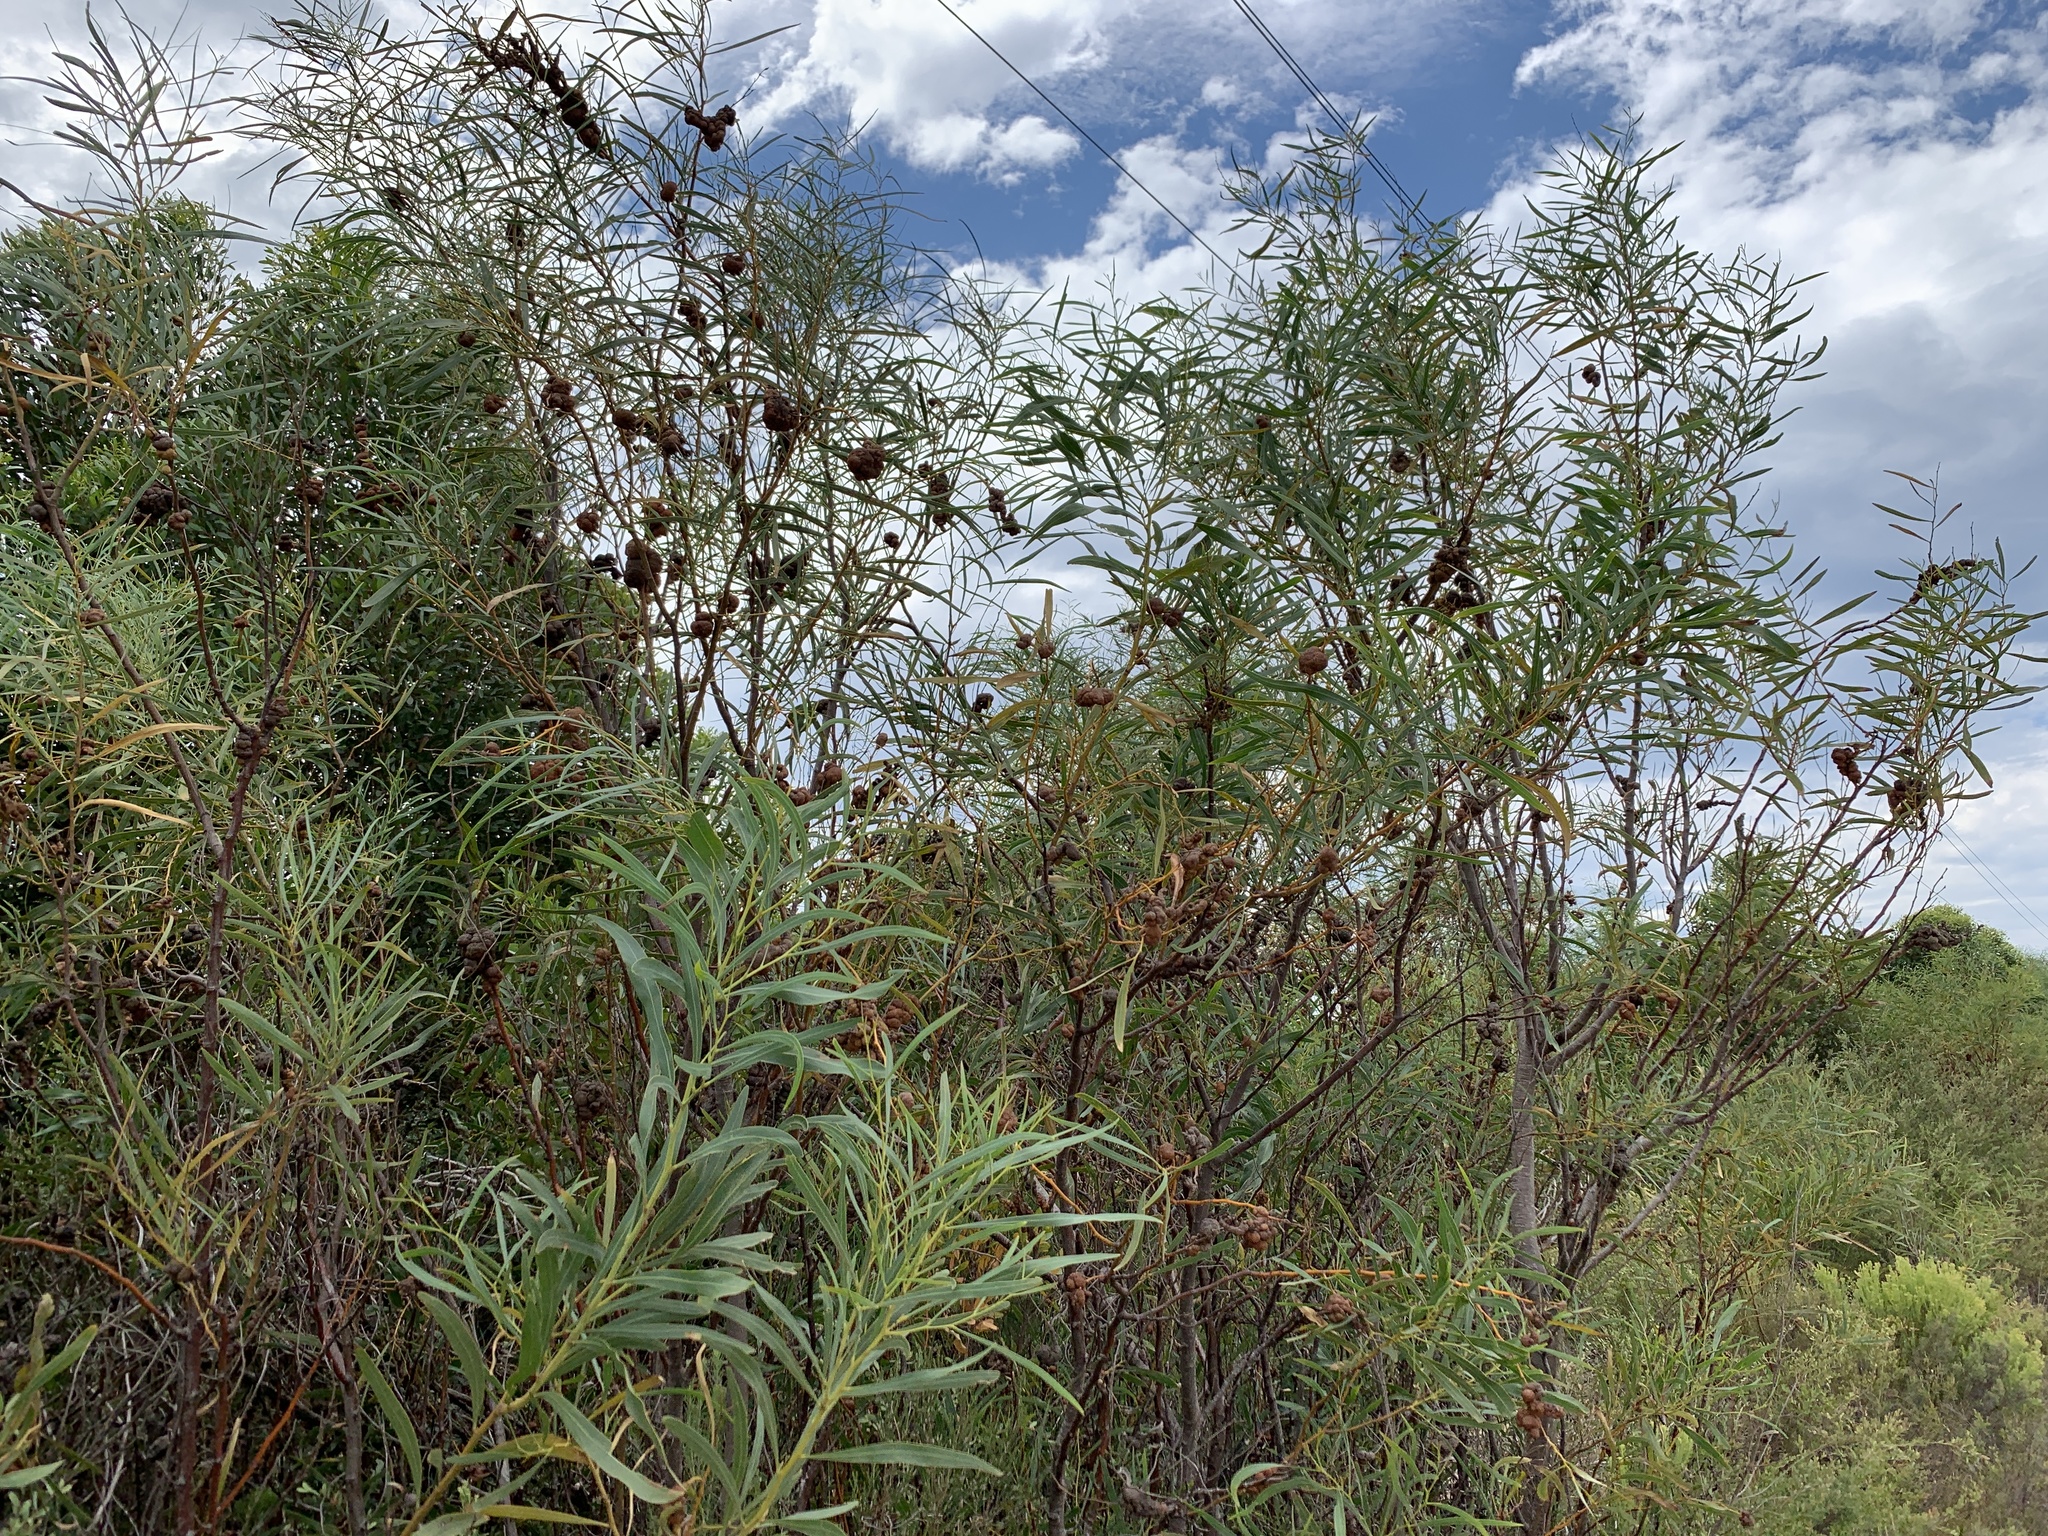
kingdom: Plantae
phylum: Tracheophyta
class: Magnoliopsida
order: Fabales
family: Fabaceae
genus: Acacia
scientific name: Acacia saligna
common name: Orange wattle
